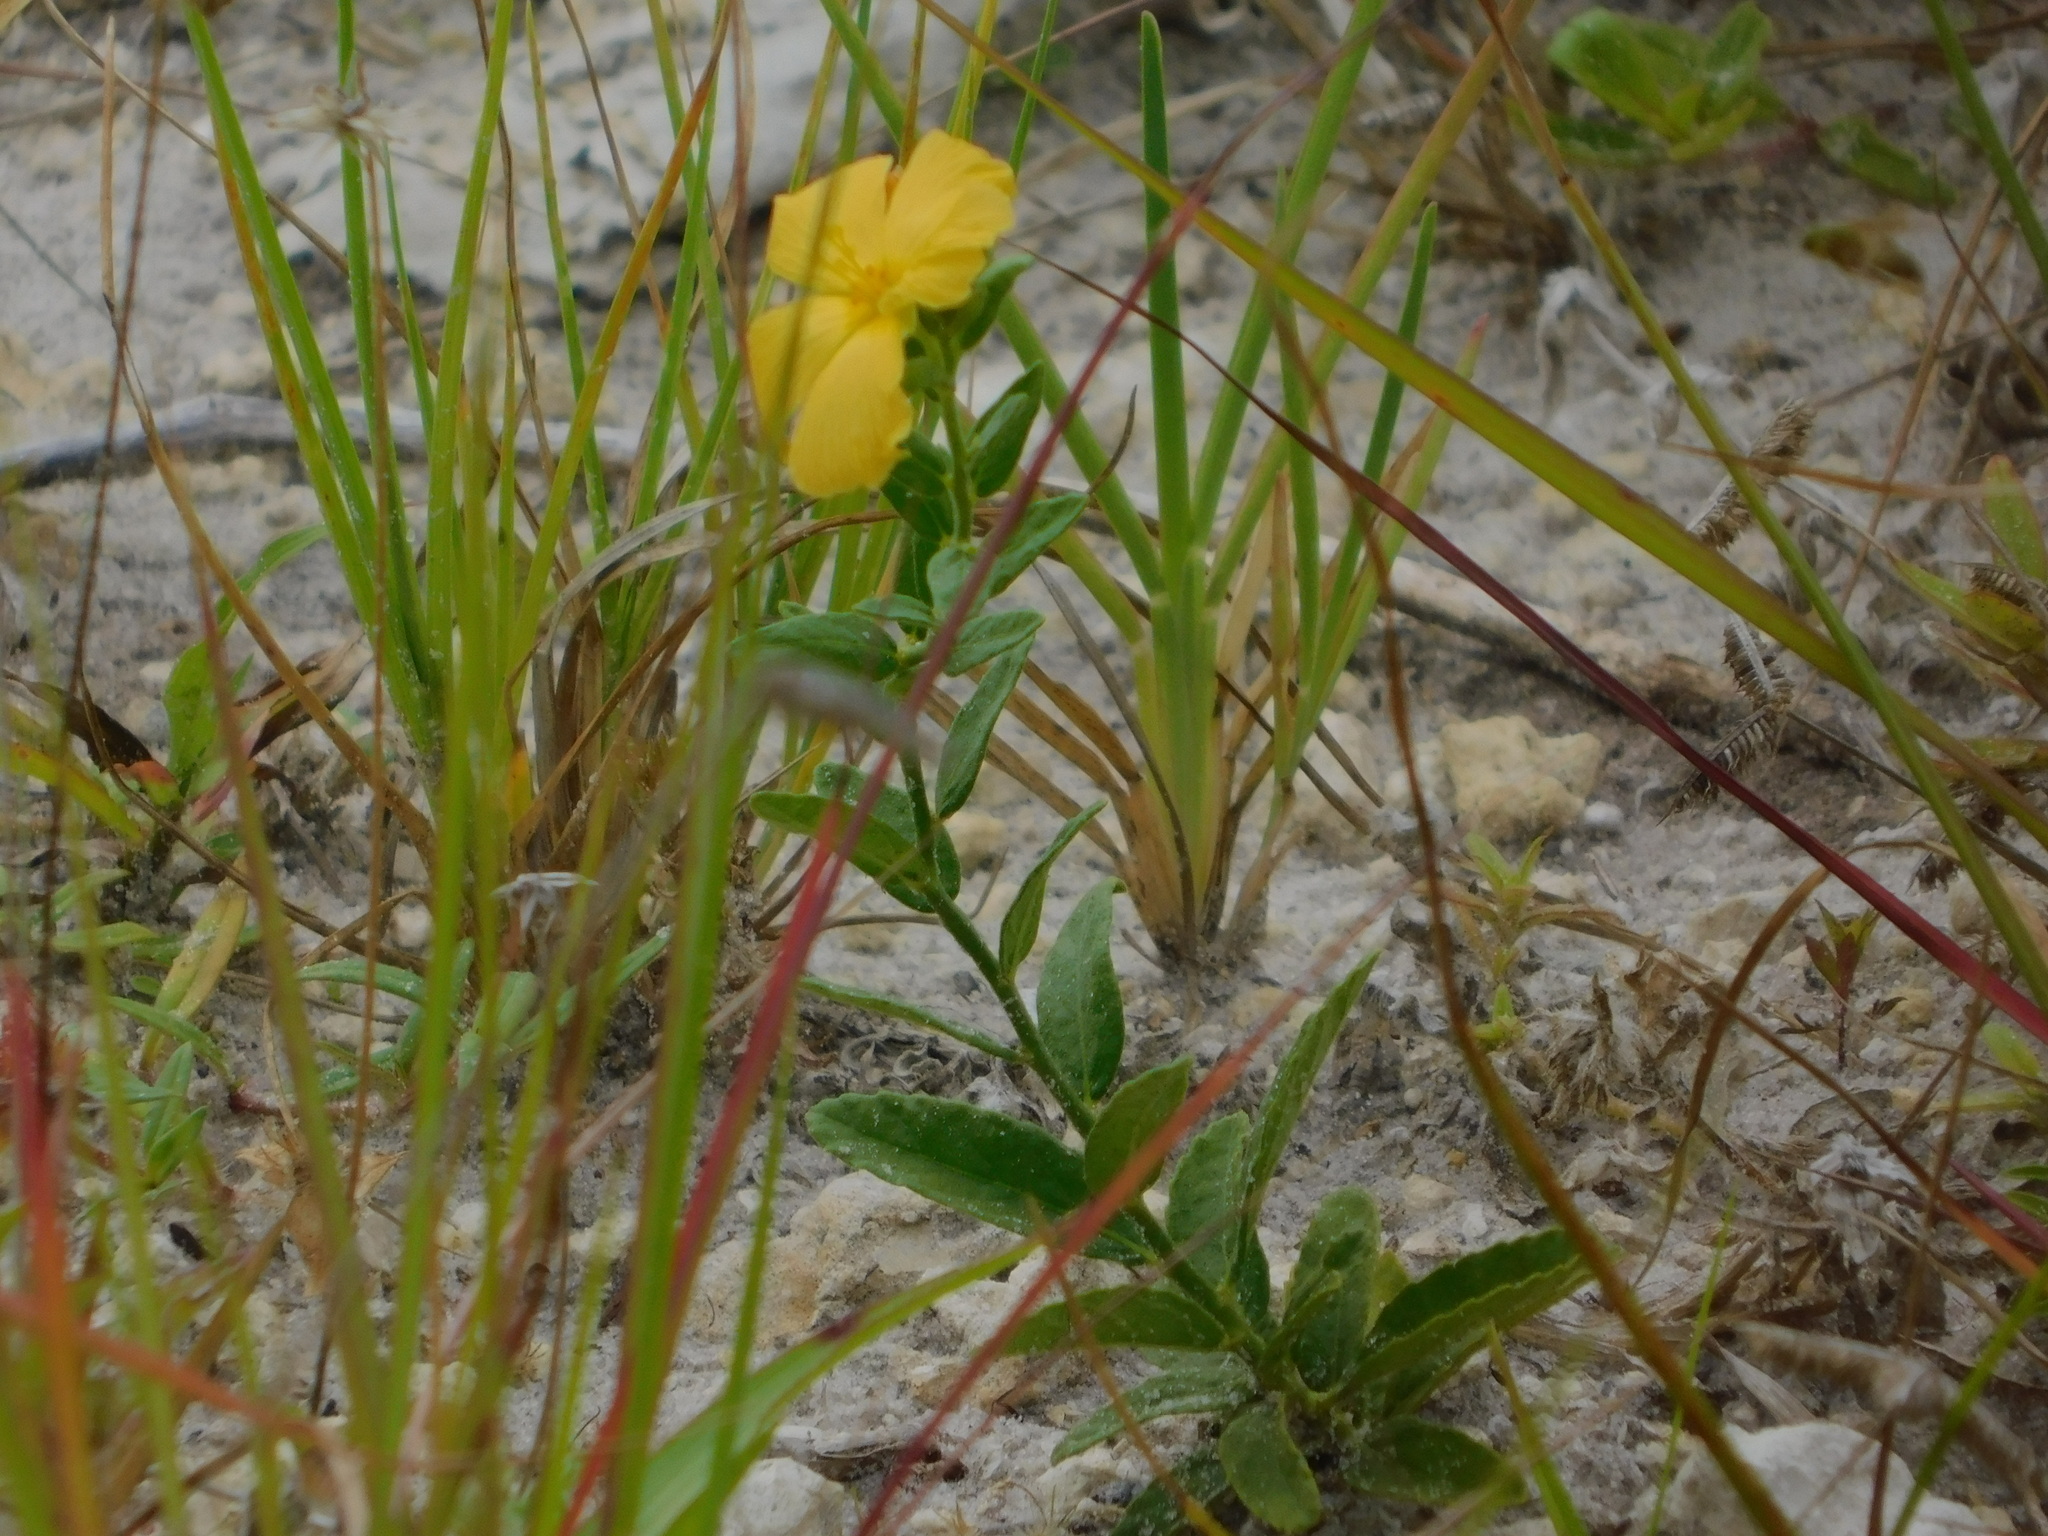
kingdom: Plantae
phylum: Tracheophyta
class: Magnoliopsida
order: Malpighiales
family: Turneraceae
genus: Piriqueta
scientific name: Piriqueta cistoides
